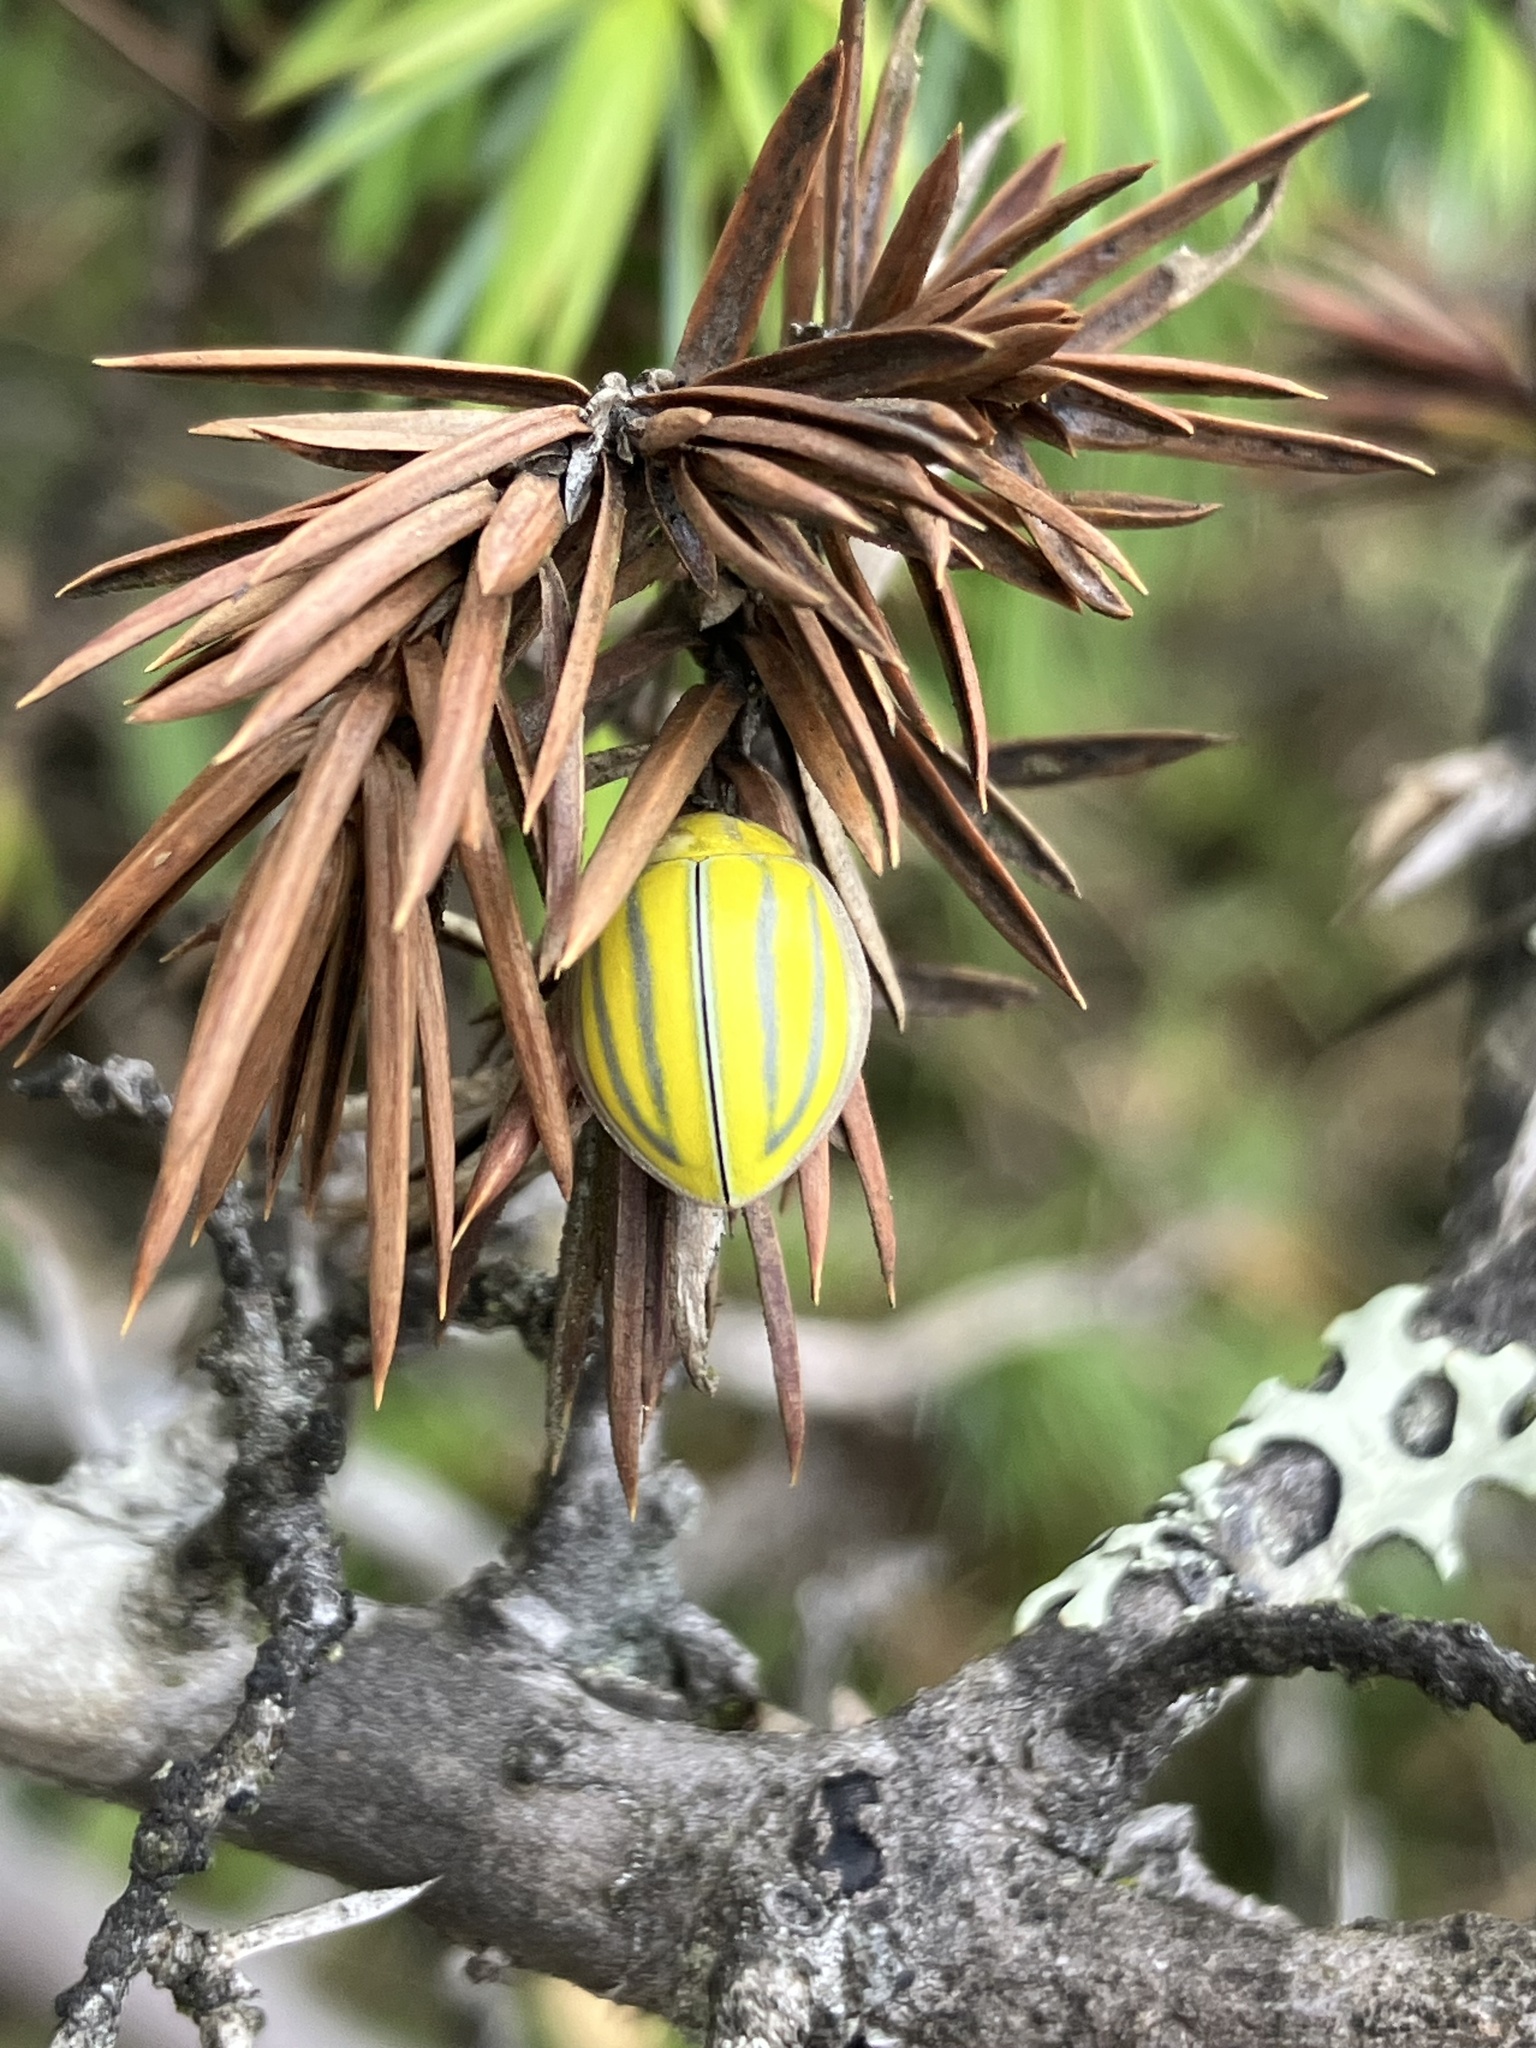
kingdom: Animalia
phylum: Arthropoda
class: Insecta
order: Coleoptera
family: Coccinellidae
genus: Calvia
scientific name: Calvia championorum
